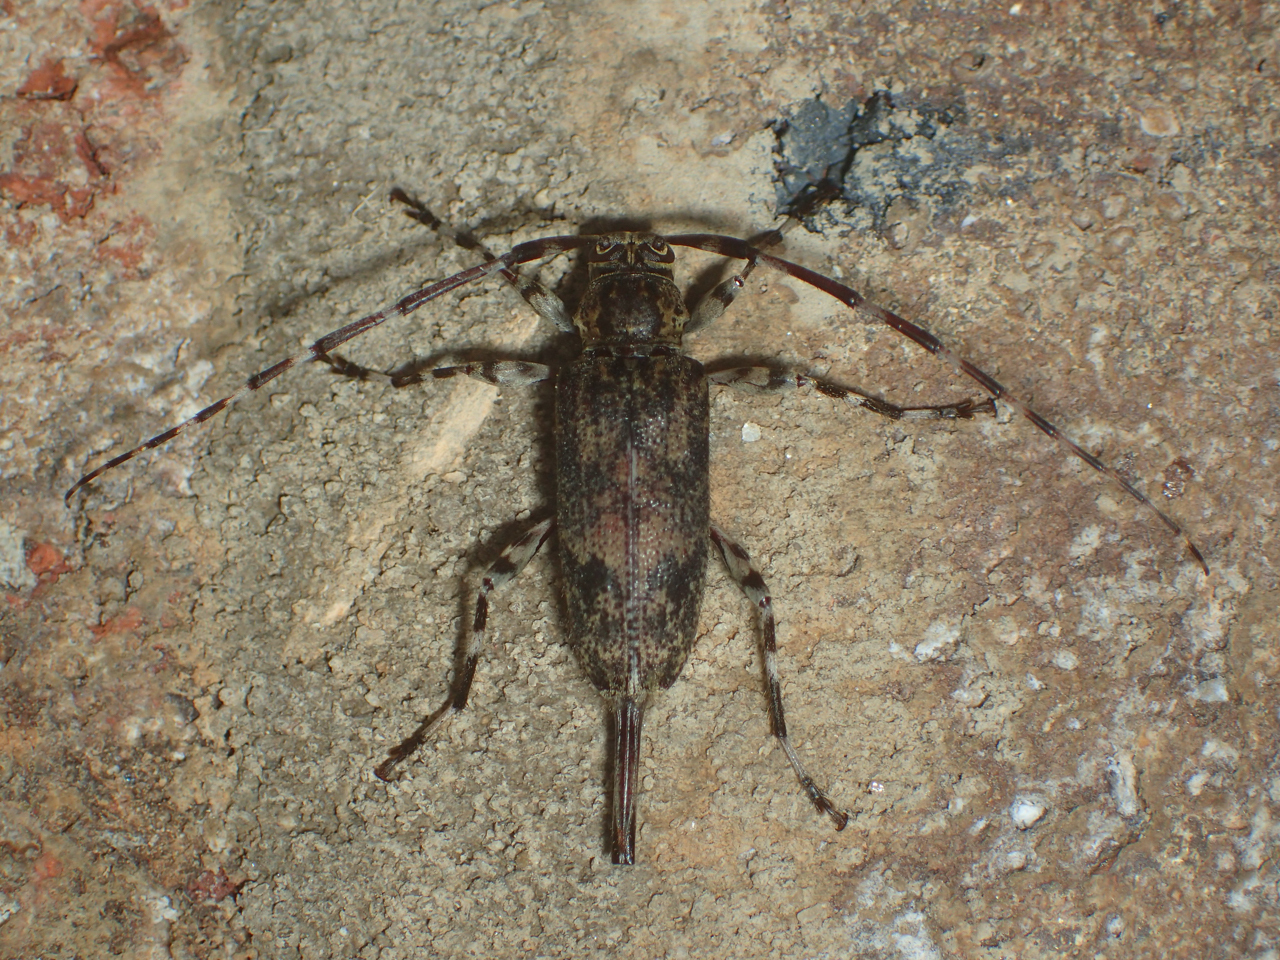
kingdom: Animalia
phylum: Arthropoda
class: Insecta
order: Coleoptera
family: Cerambycidae
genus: Graphisurus
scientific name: Graphisurus fasciatus
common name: Banded graphisurus
